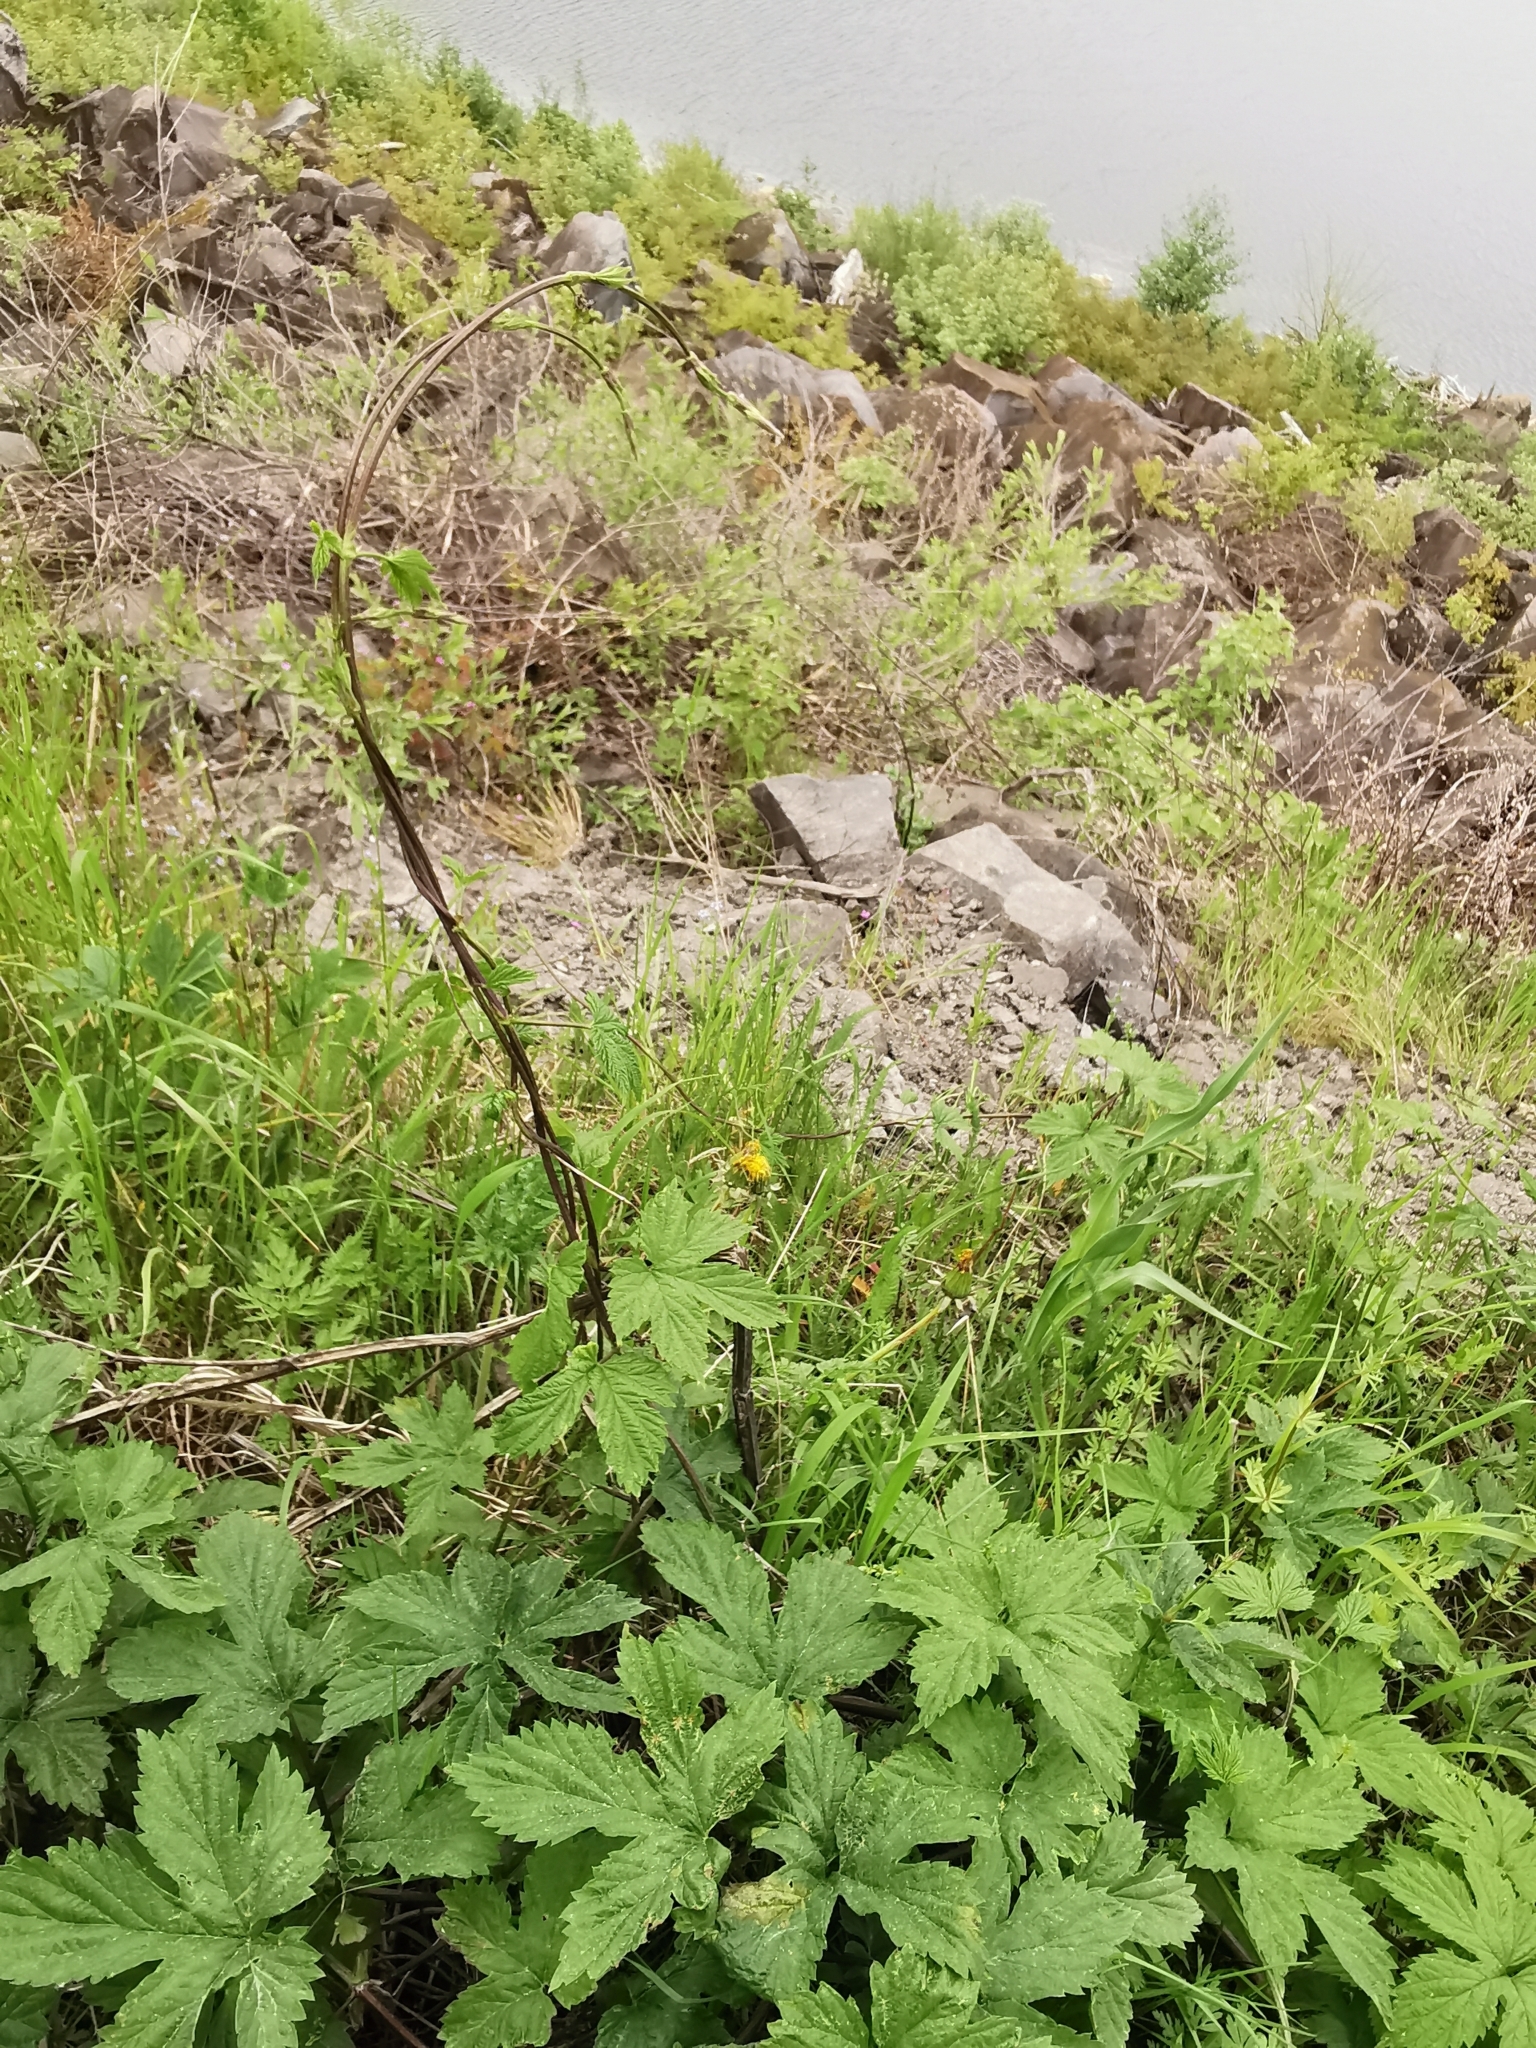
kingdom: Plantae
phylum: Tracheophyta
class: Magnoliopsida
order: Rosales
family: Cannabaceae
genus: Humulus
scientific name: Humulus lupulus
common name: Hop
